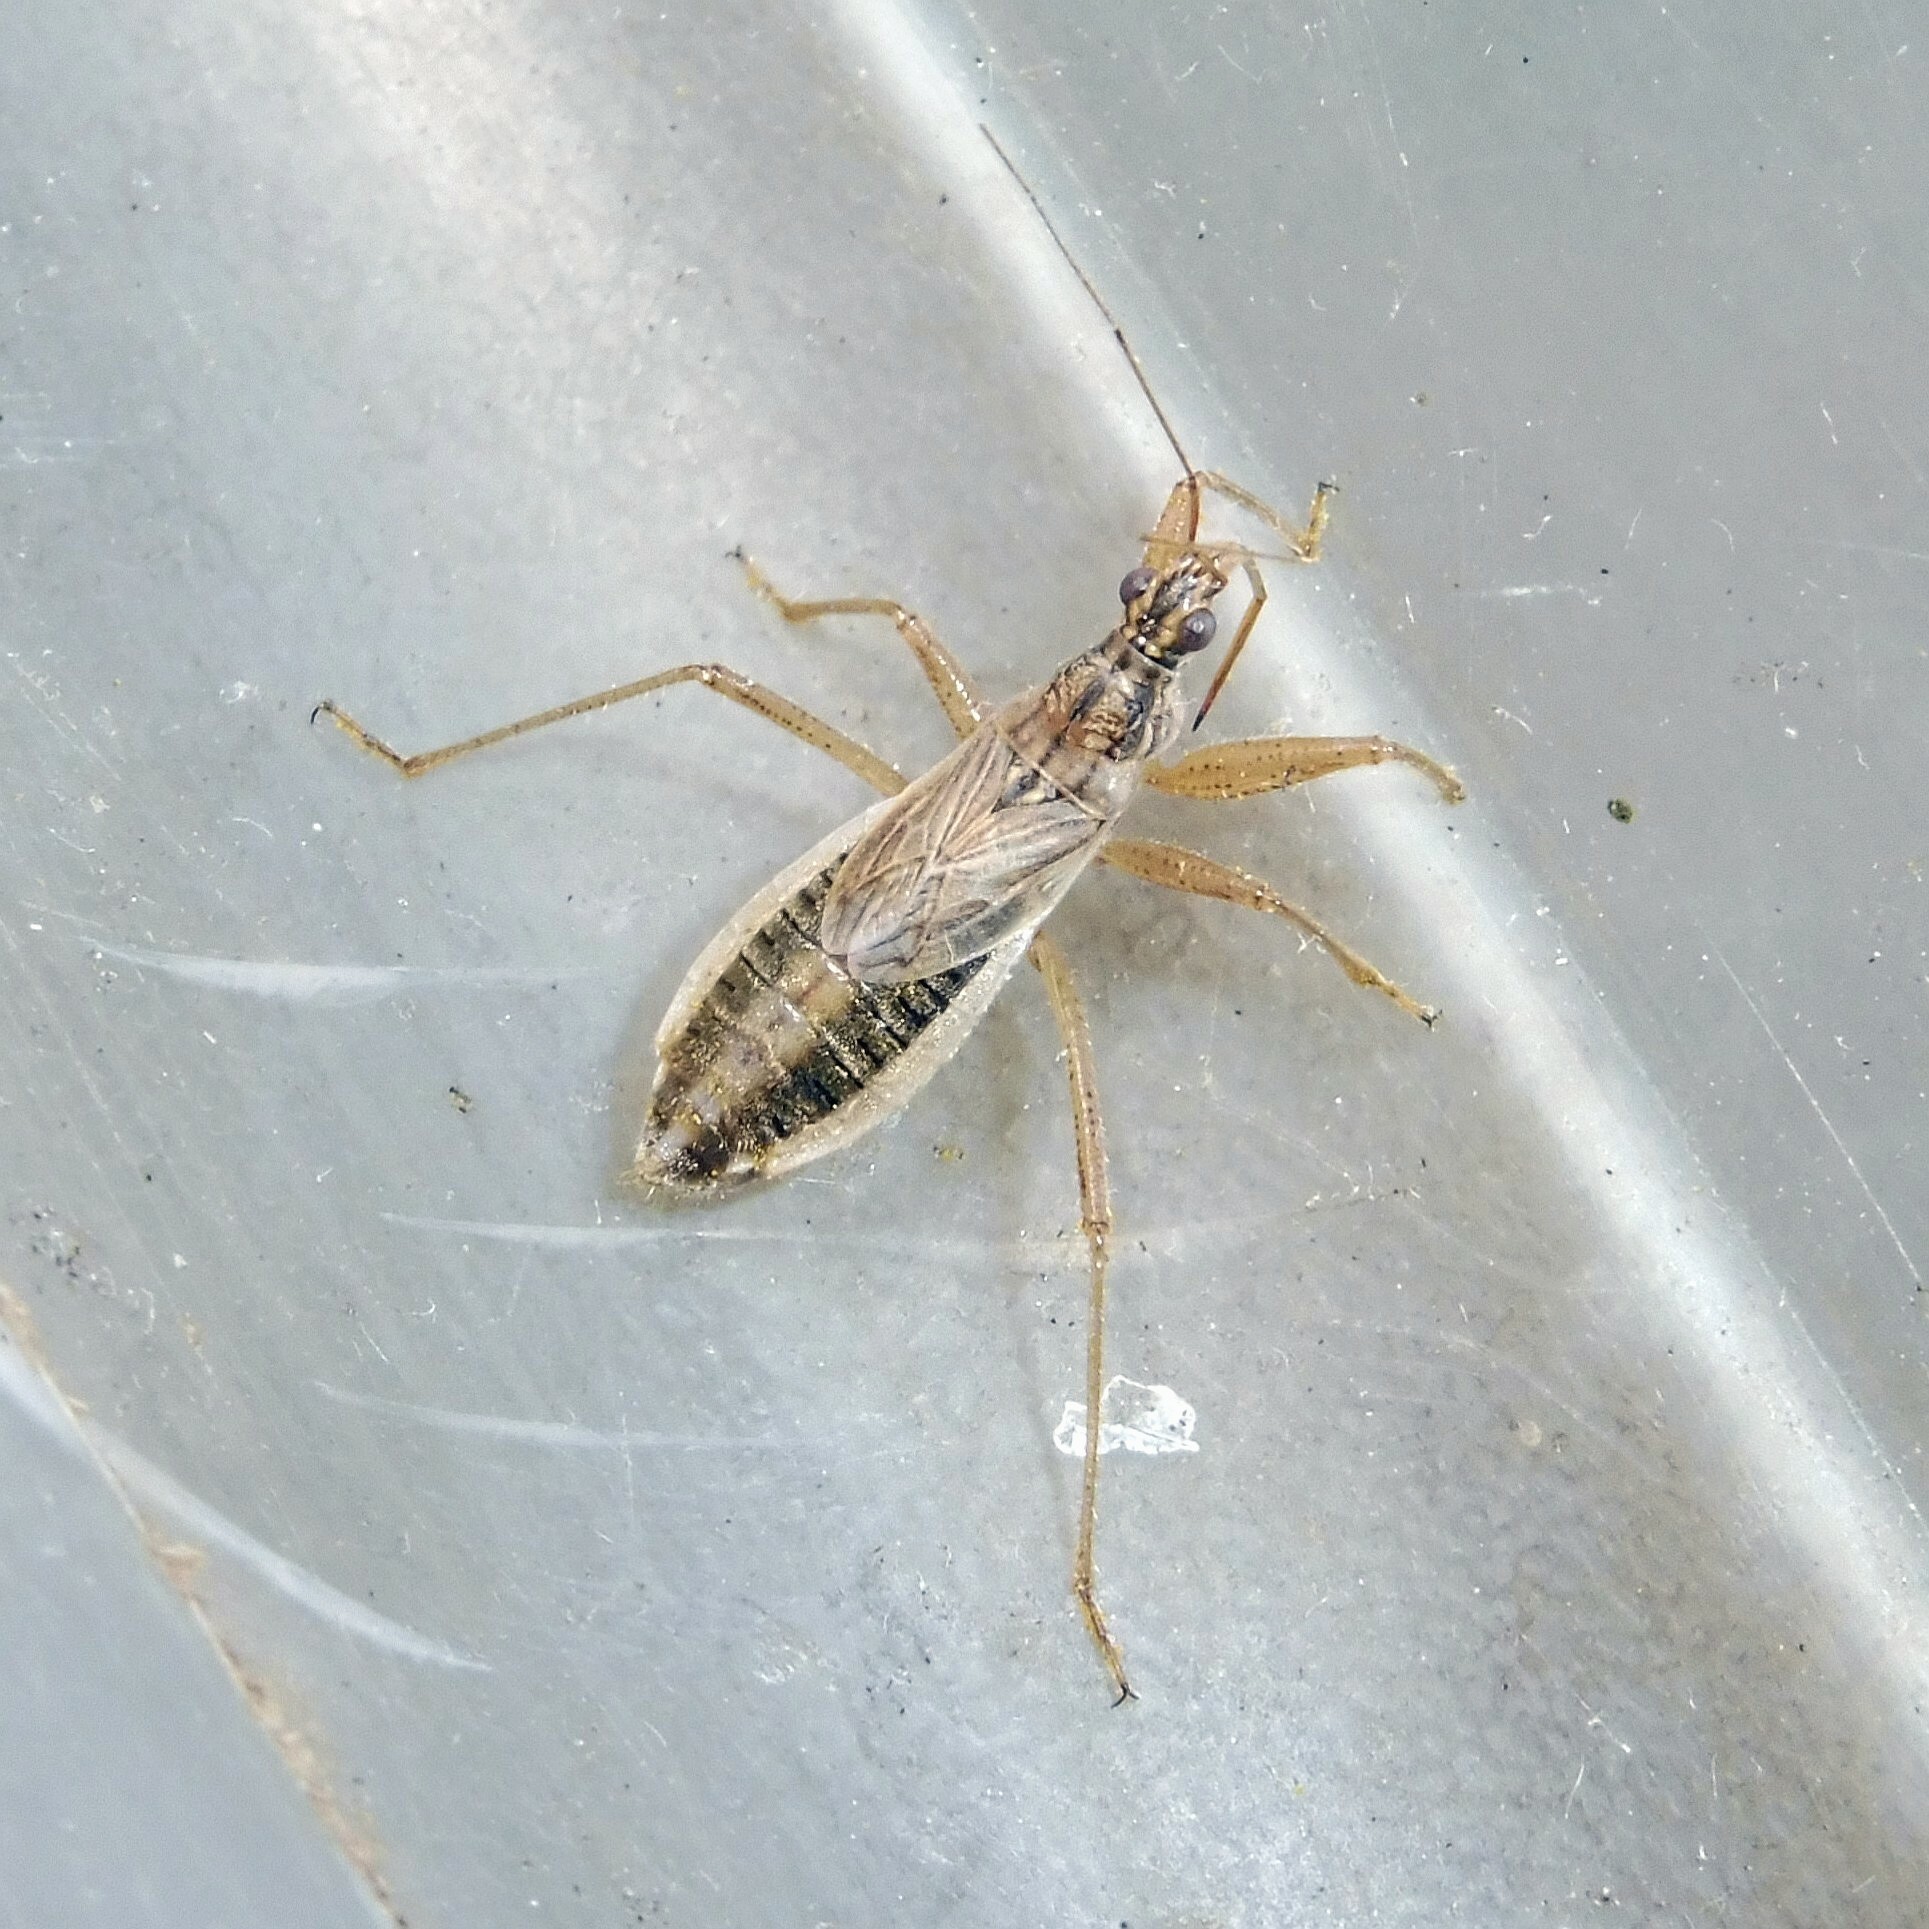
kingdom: Animalia
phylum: Arthropoda
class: Insecta
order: Hemiptera
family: Nabidae
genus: Nabis
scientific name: Nabis flavomarginatus
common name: Broad damselbug
